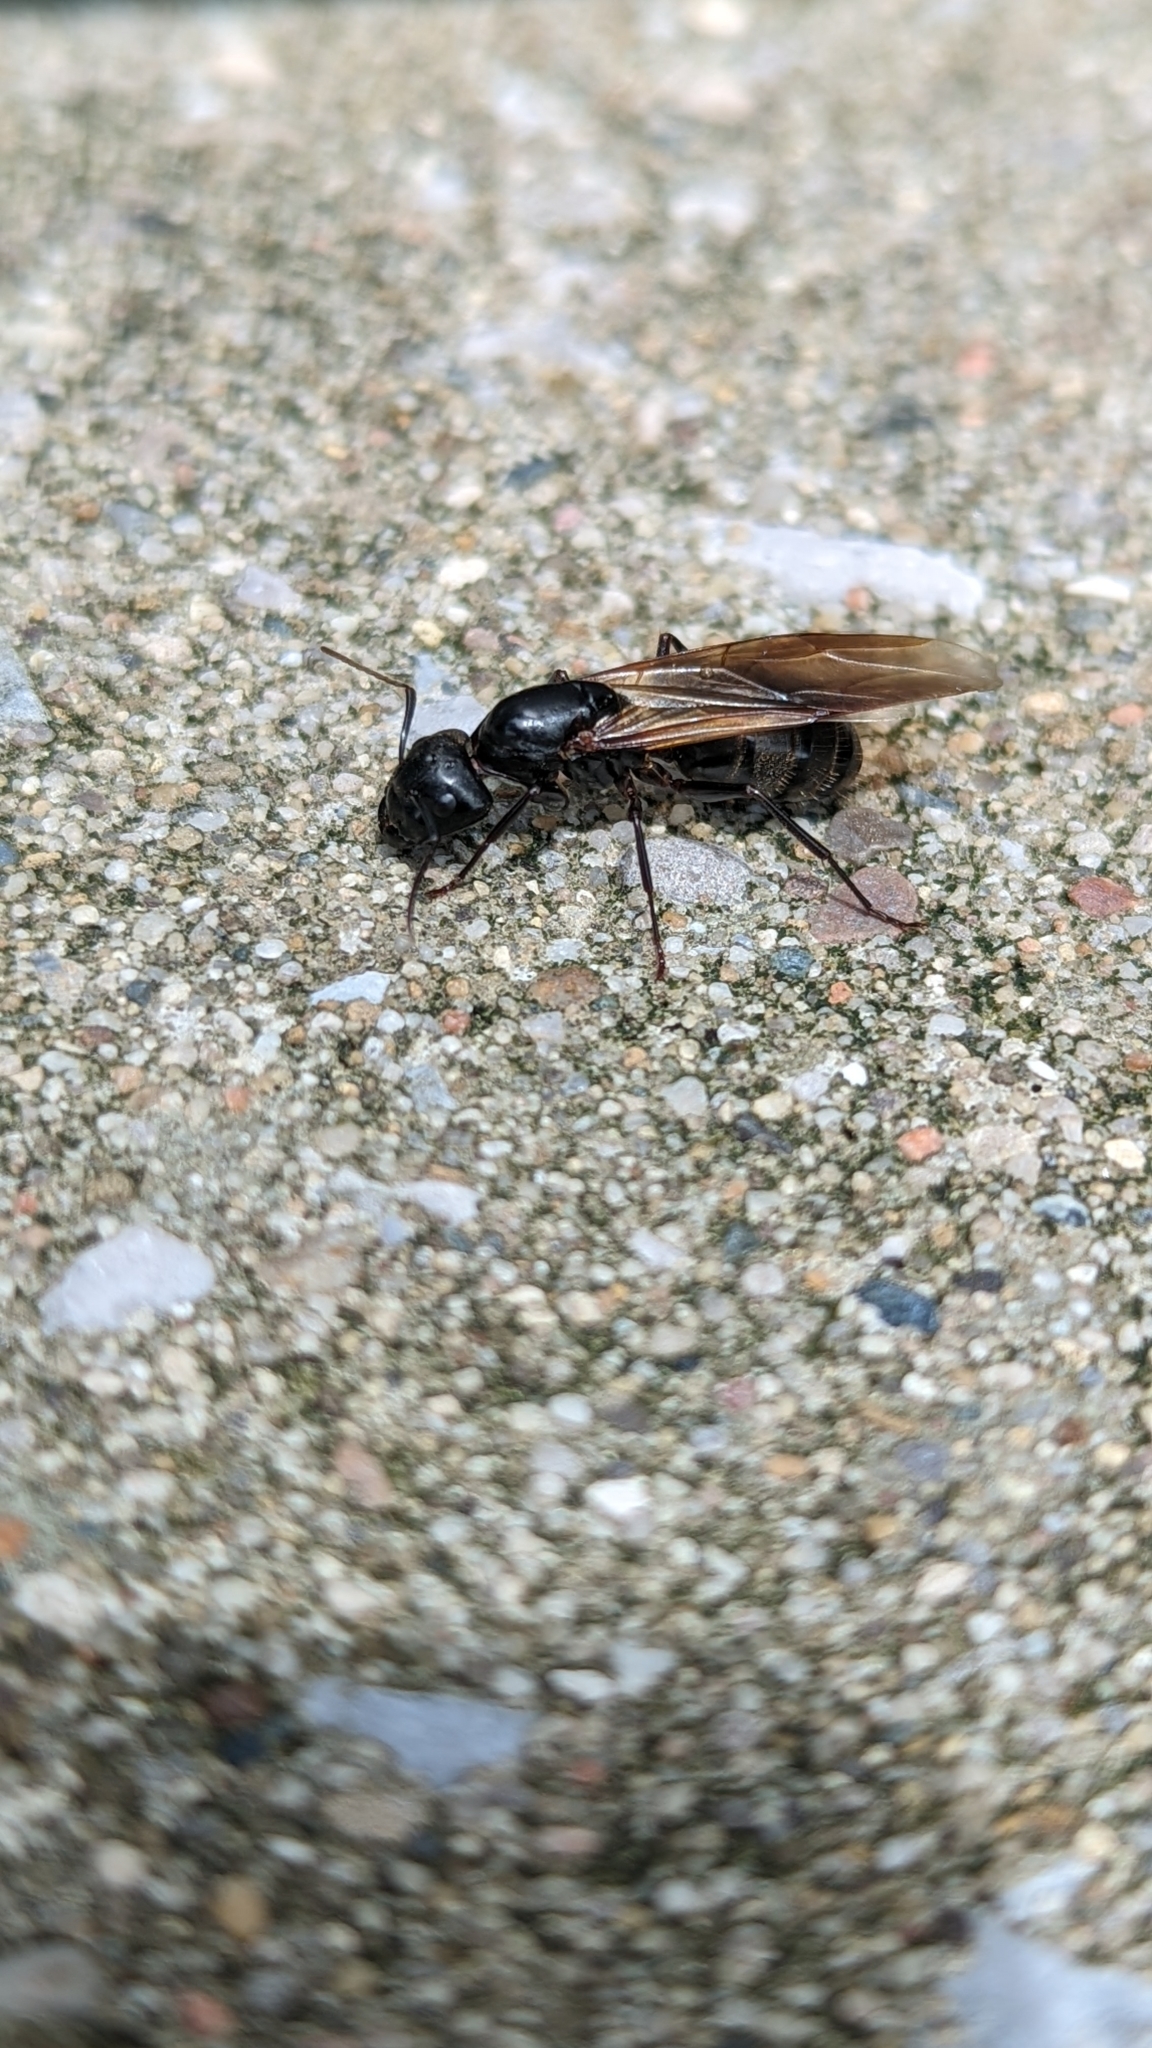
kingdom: Animalia
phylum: Arthropoda
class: Insecta
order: Hymenoptera
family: Formicidae
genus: Camponotus
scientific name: Camponotus pennsylvanicus
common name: Black carpenter ant
